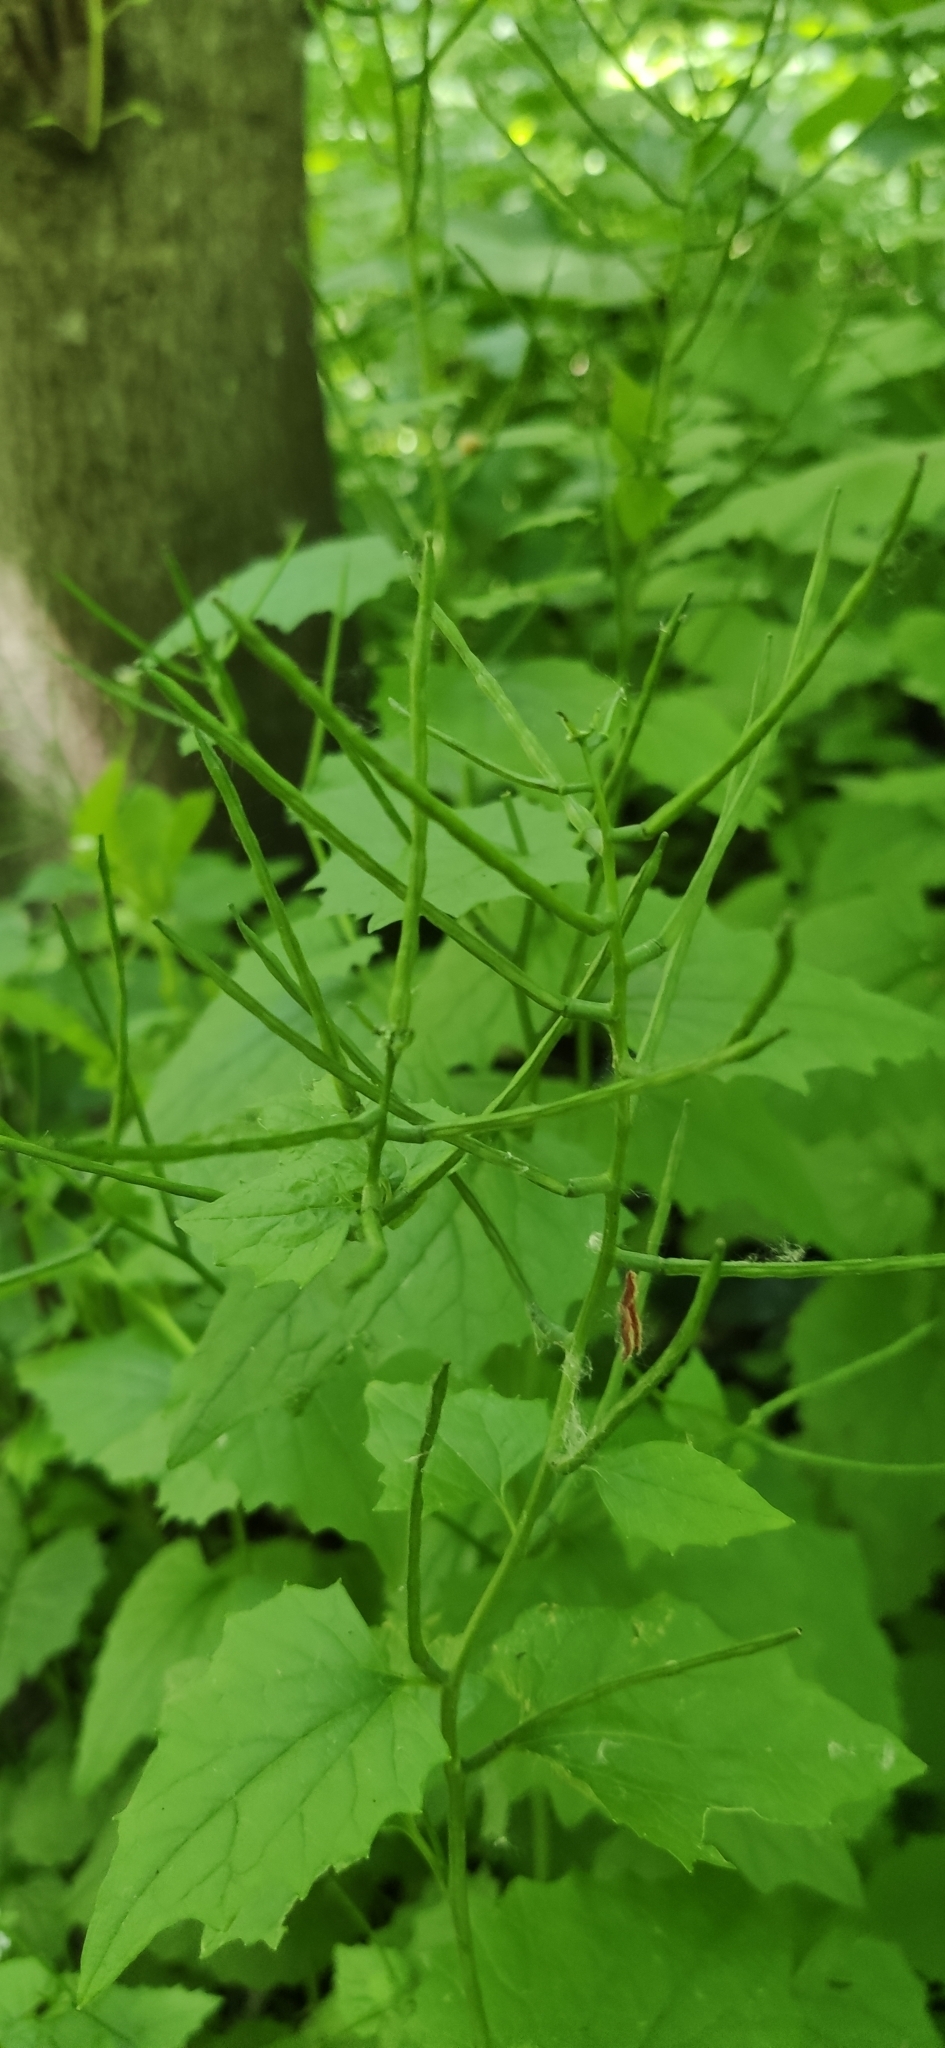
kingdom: Plantae
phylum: Tracheophyta
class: Magnoliopsida
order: Brassicales
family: Brassicaceae
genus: Alliaria
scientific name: Alliaria petiolata
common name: Garlic mustard
